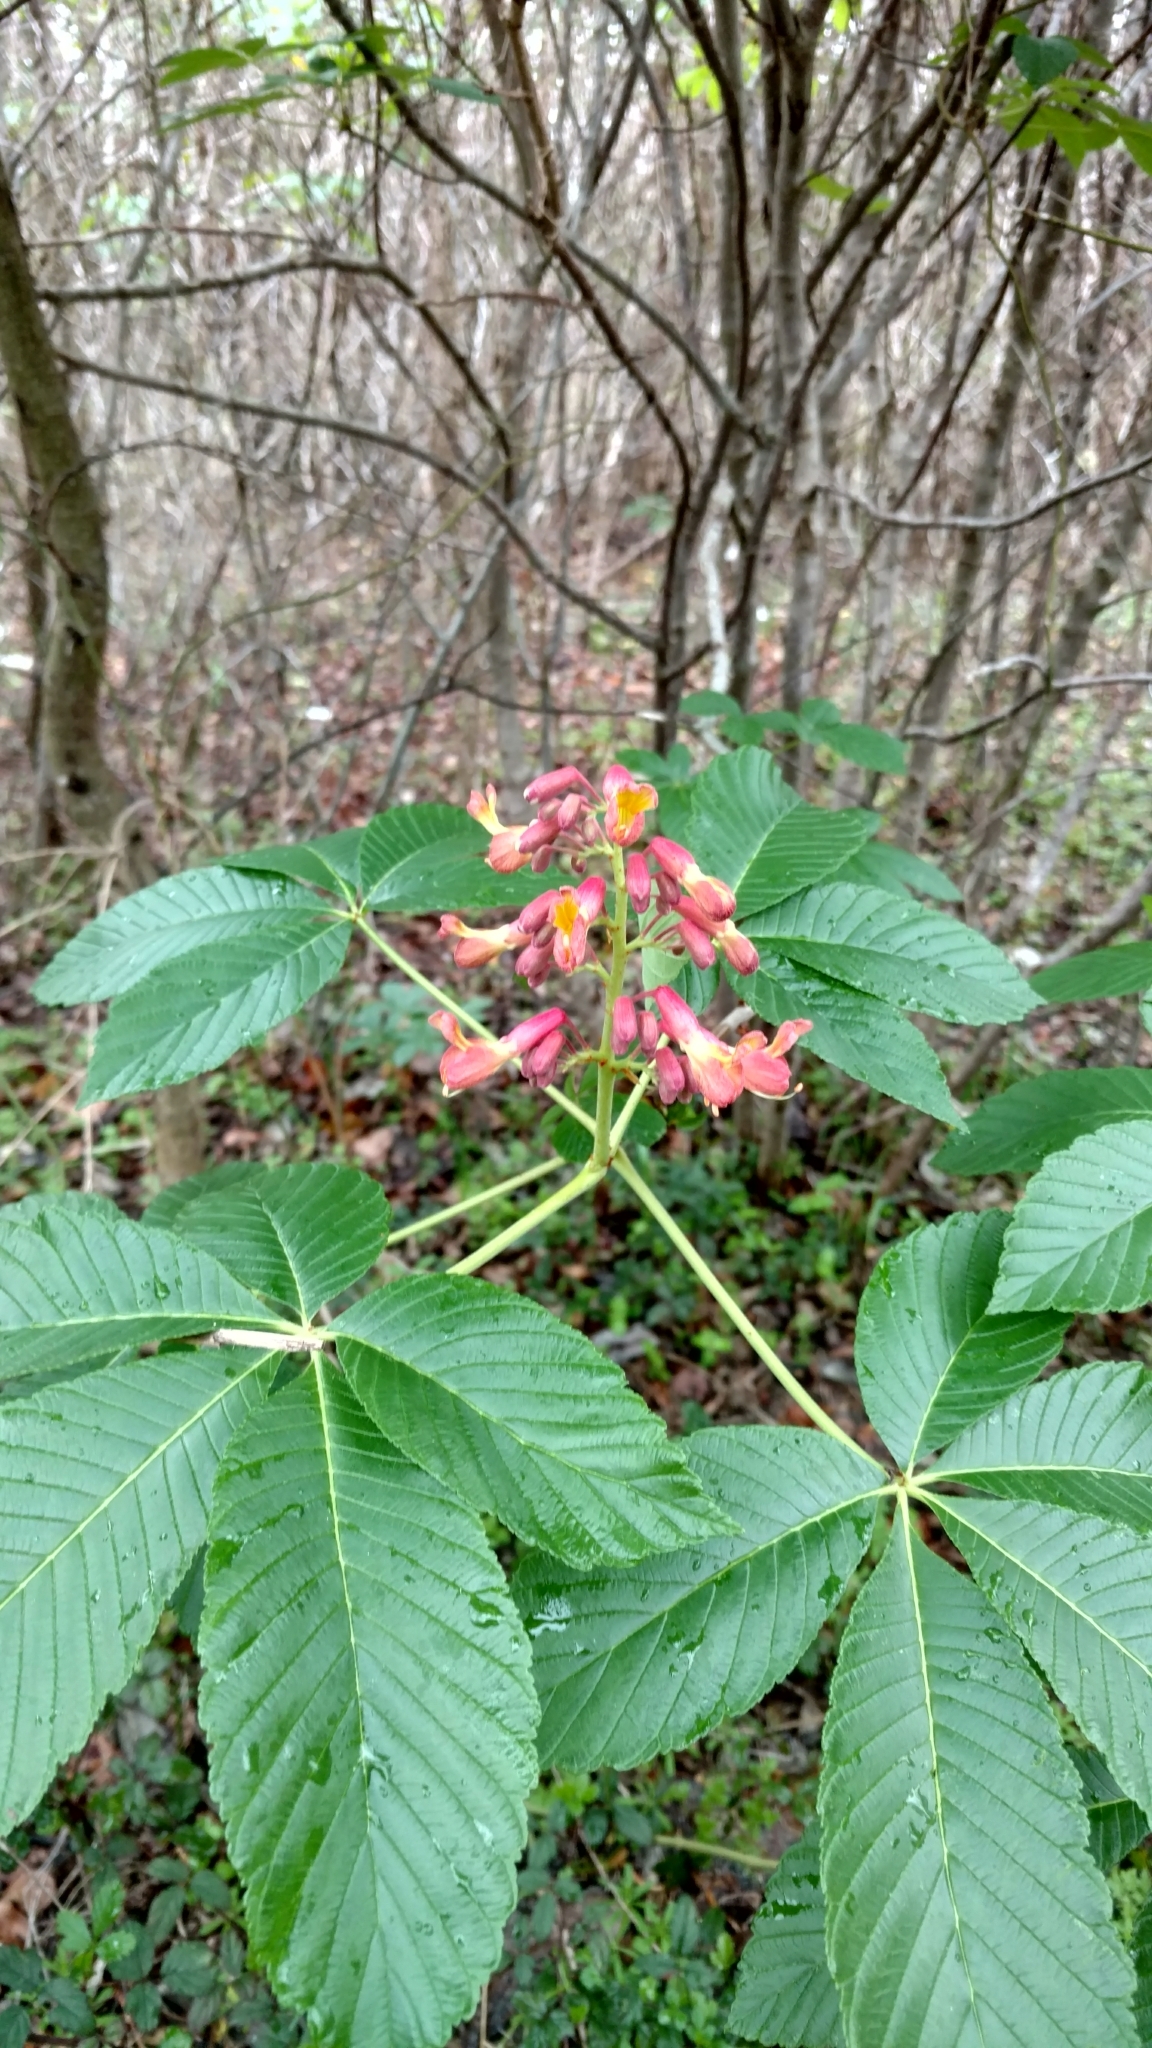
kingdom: Plantae
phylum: Tracheophyta
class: Magnoliopsida
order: Sapindales
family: Sapindaceae
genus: Aesculus
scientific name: Aesculus pavia
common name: Red buckeye
